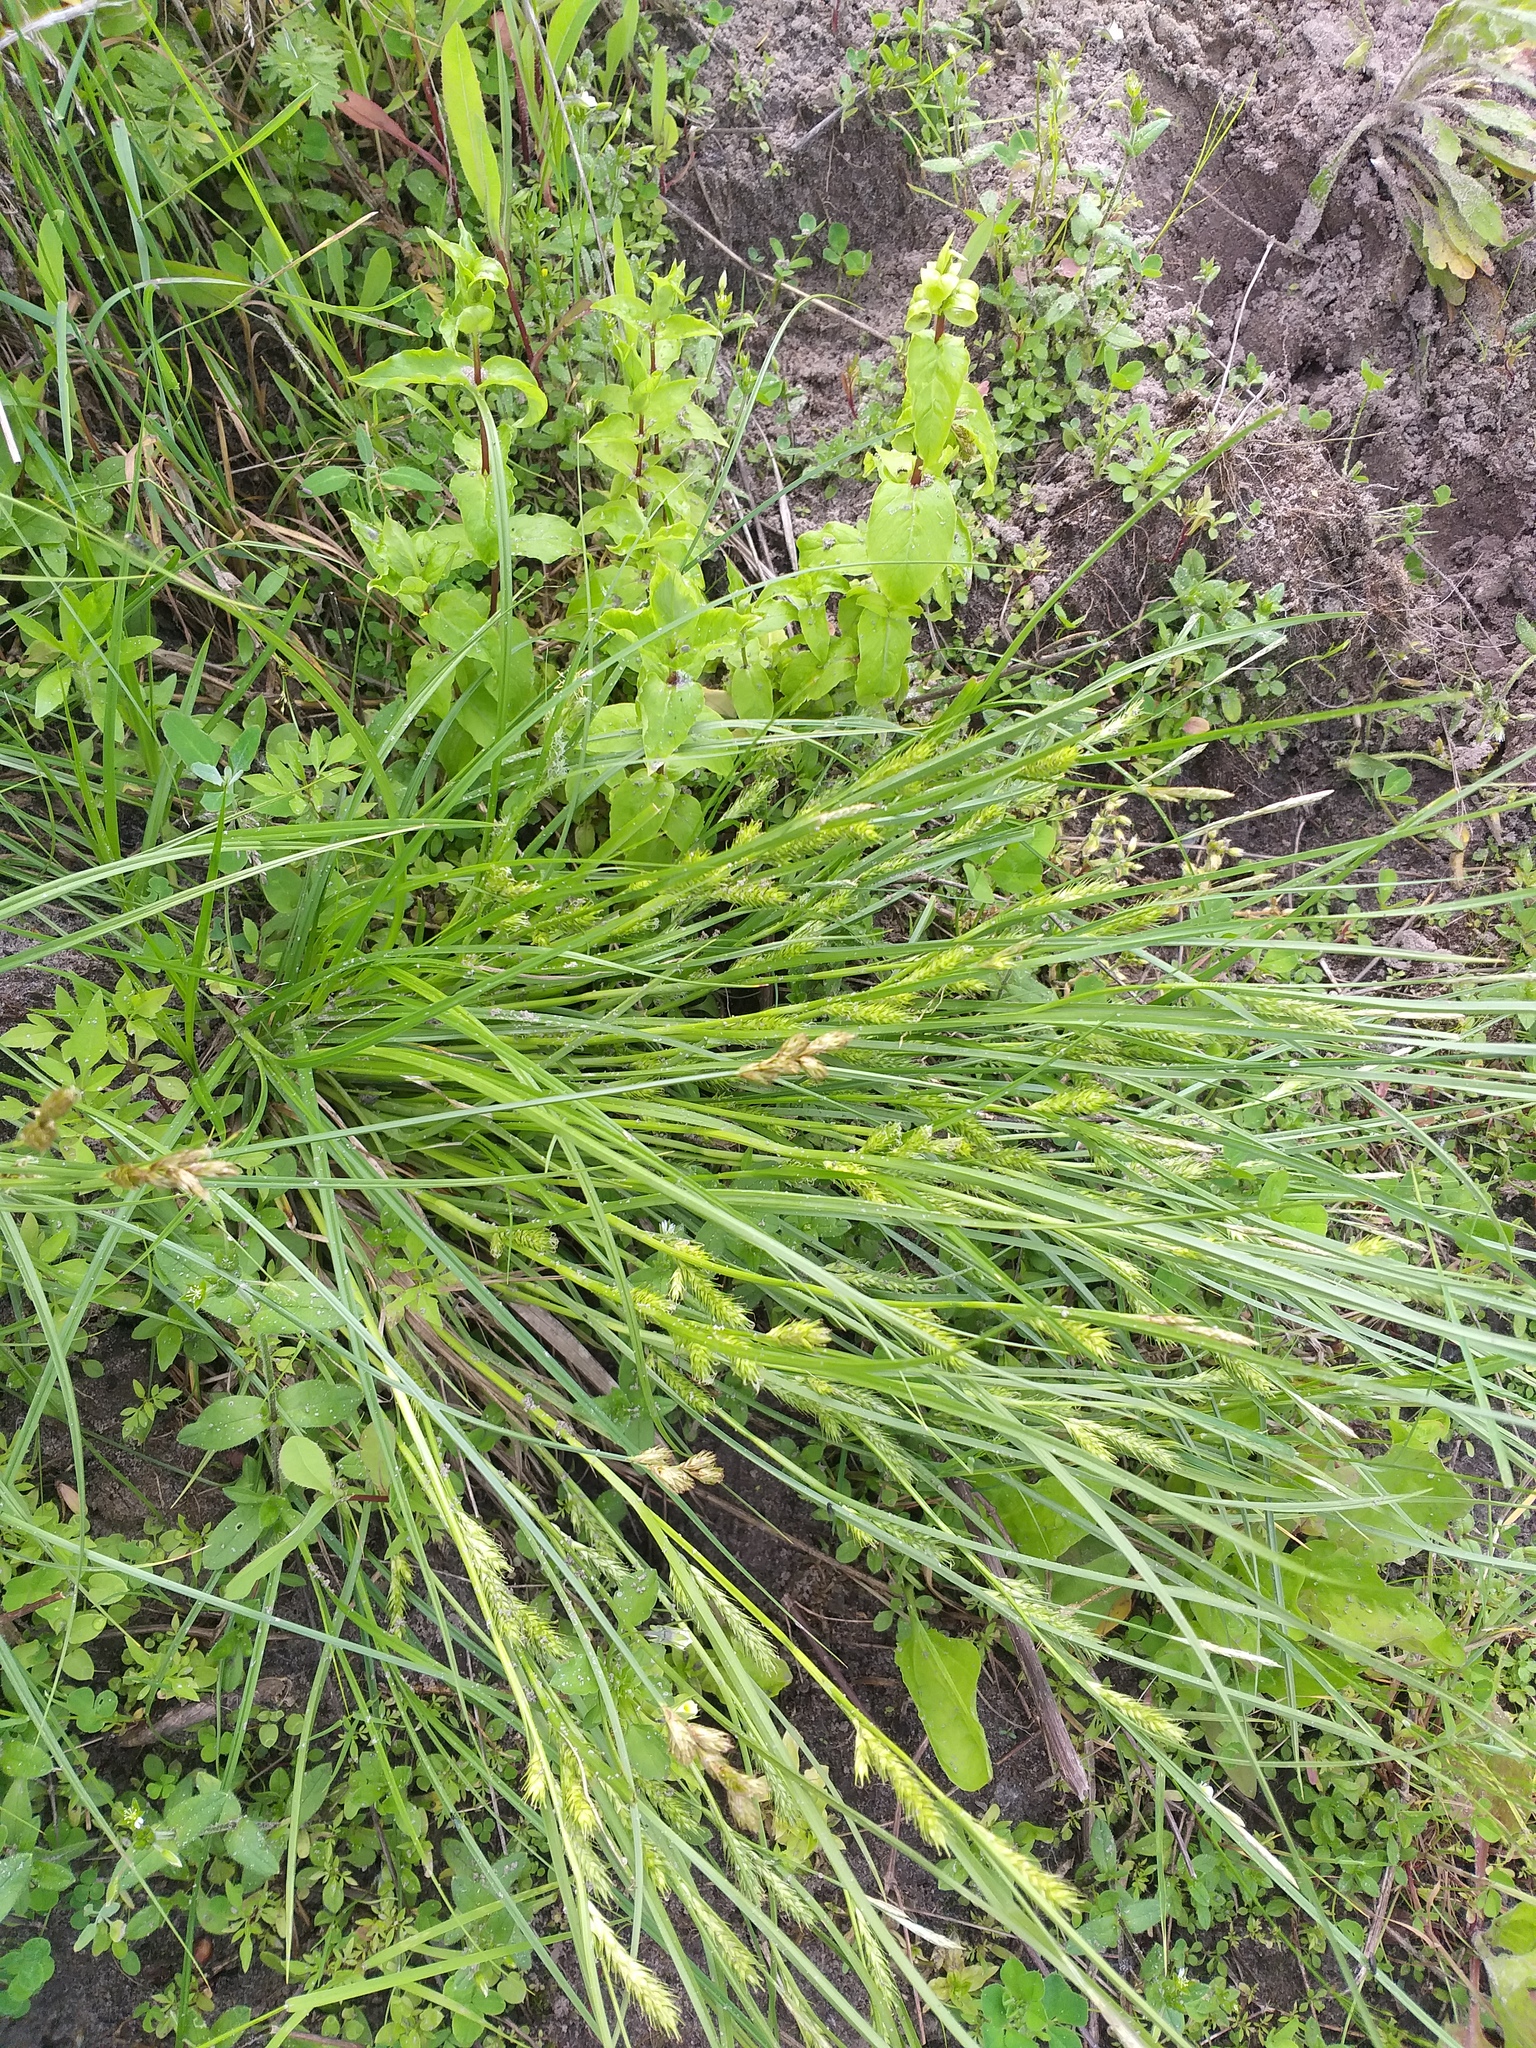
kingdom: Plantae
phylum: Tracheophyta
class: Liliopsida
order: Poales
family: Cyperaceae
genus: Carex
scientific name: Carex secalina
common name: Rye sedge
